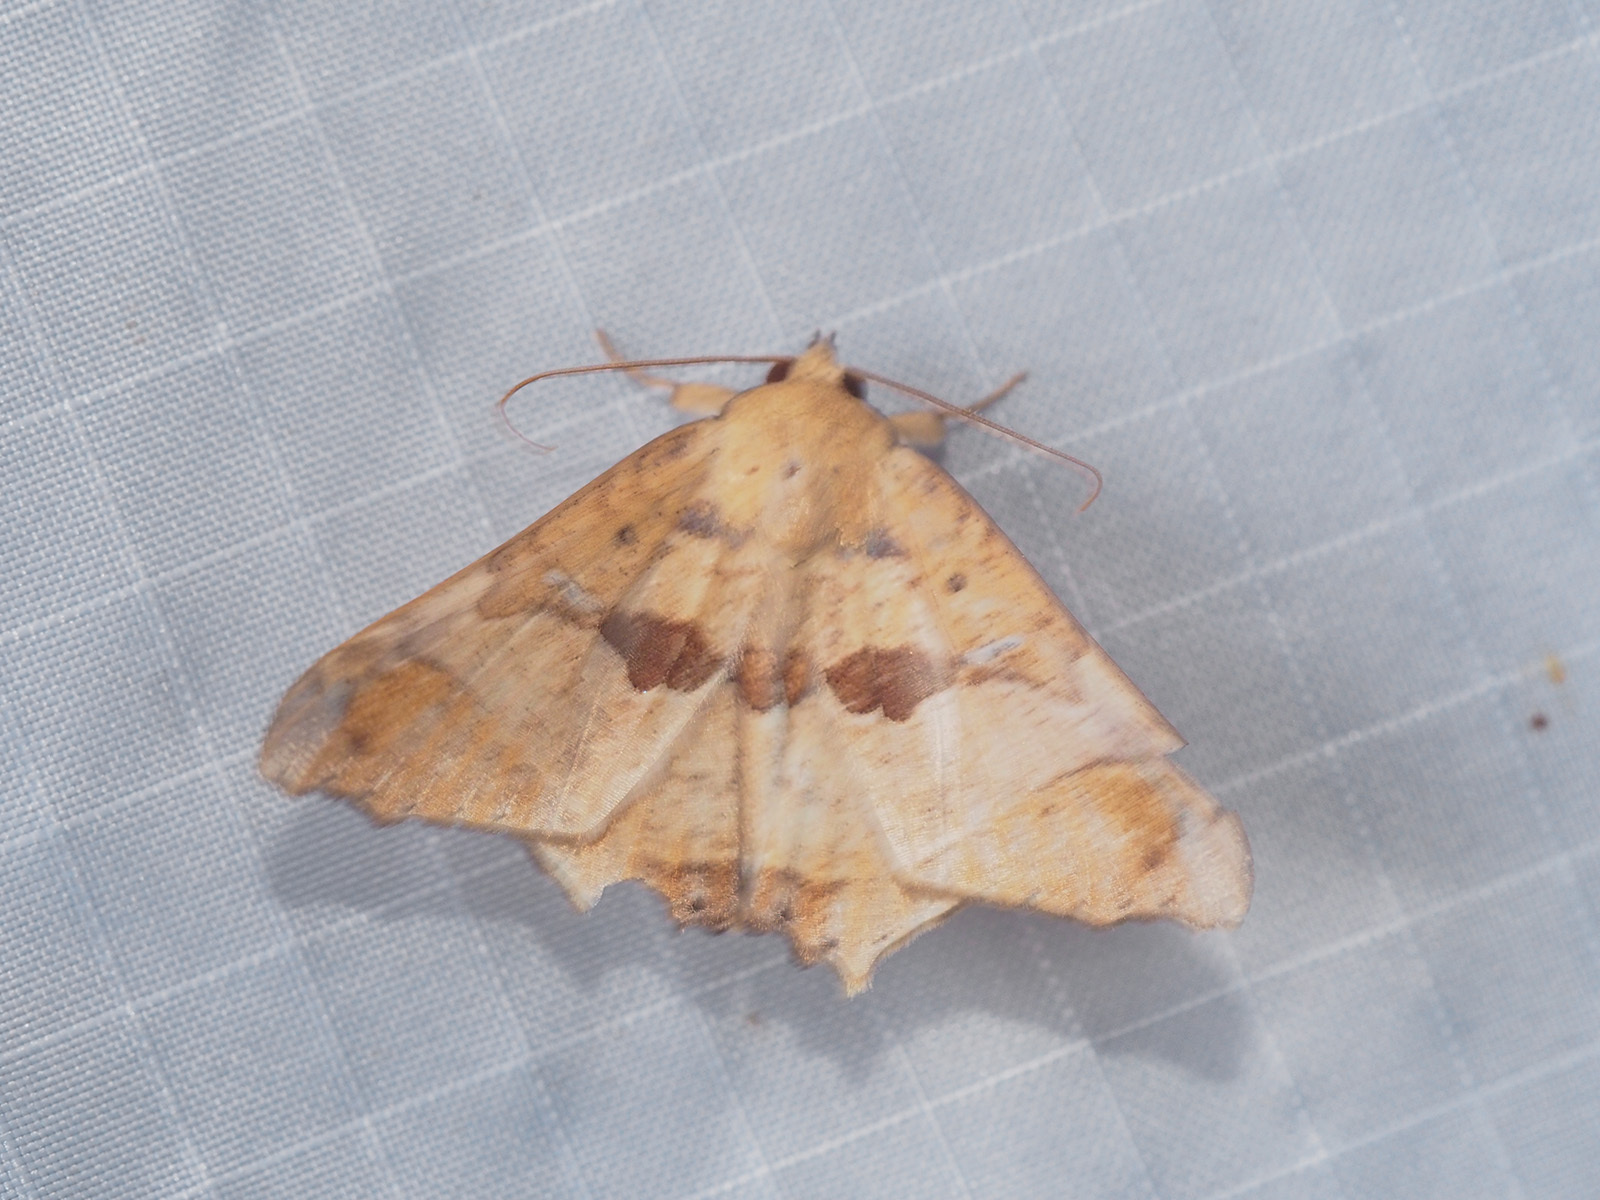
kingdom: Animalia
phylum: Arthropoda
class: Insecta
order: Lepidoptera
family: Erebidae
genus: Semiothisops
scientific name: Semiothisops macariata
